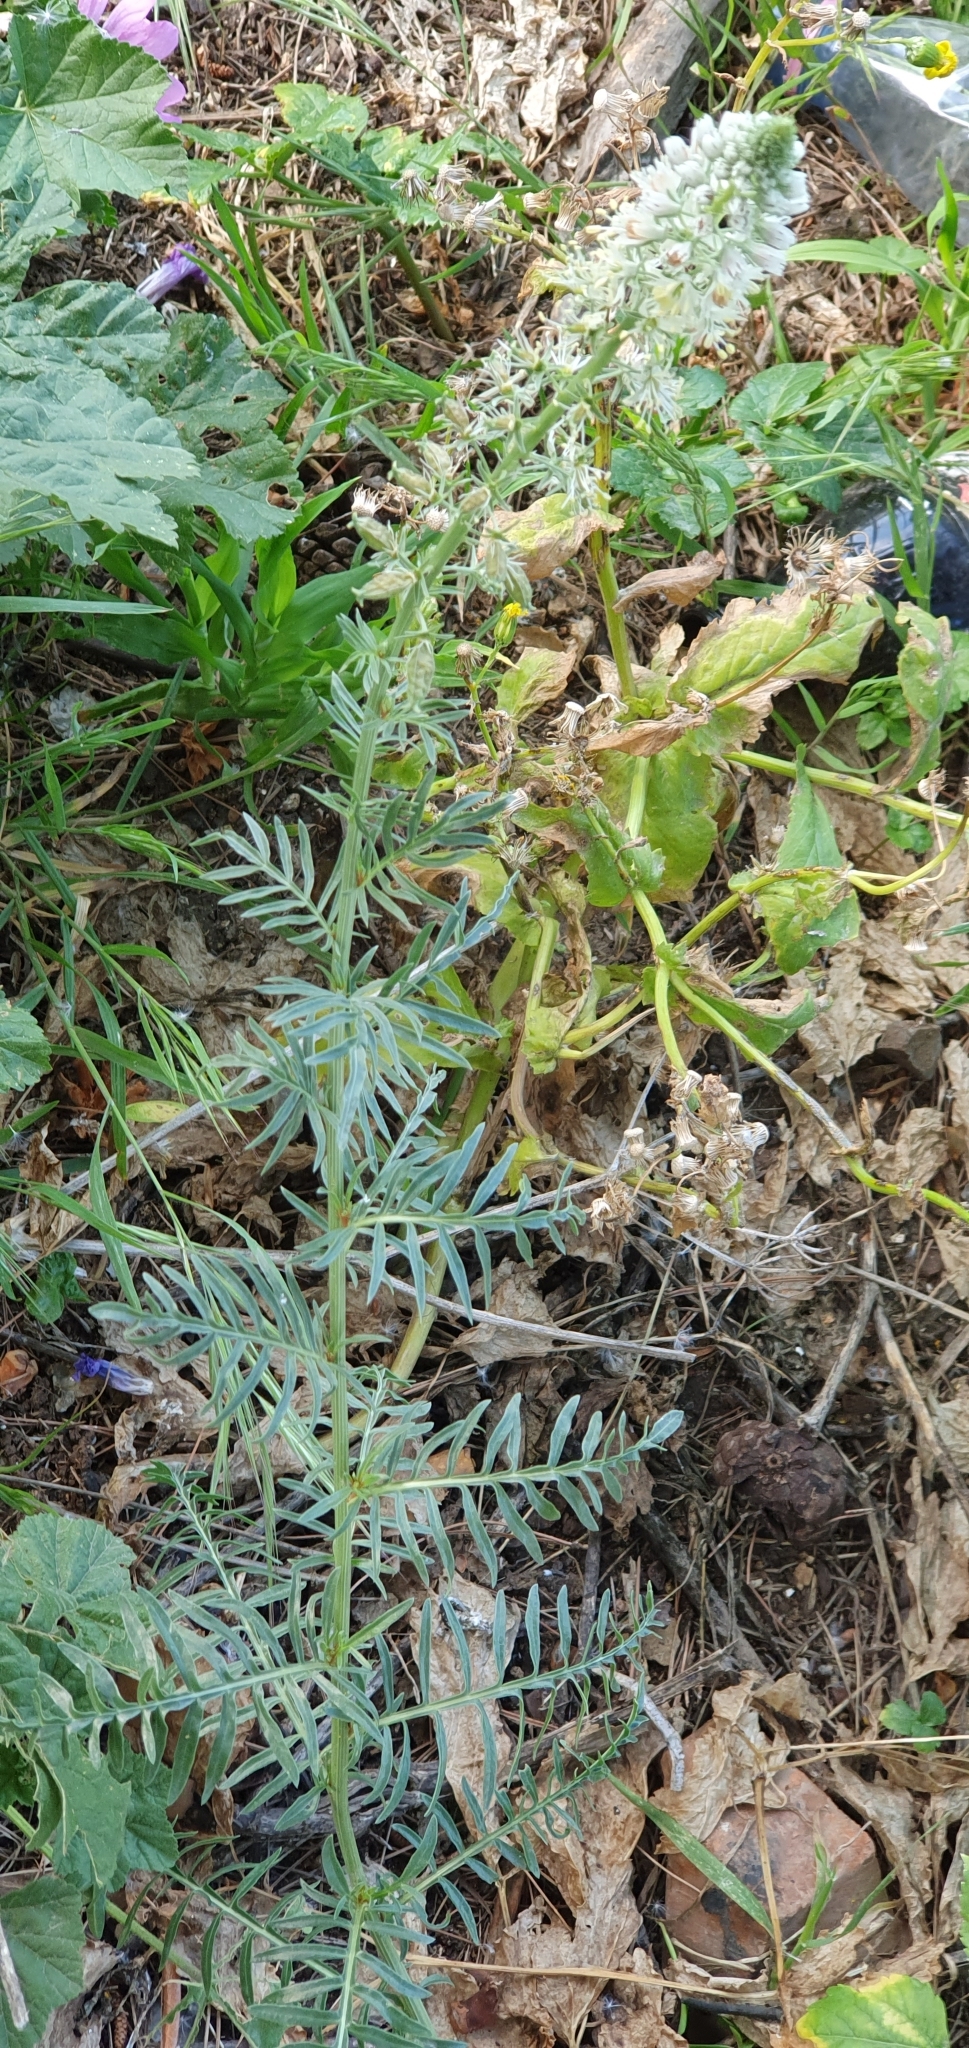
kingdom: Plantae
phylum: Tracheophyta
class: Magnoliopsida
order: Brassicales
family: Resedaceae
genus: Reseda
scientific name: Reseda alba
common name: White mignonette
